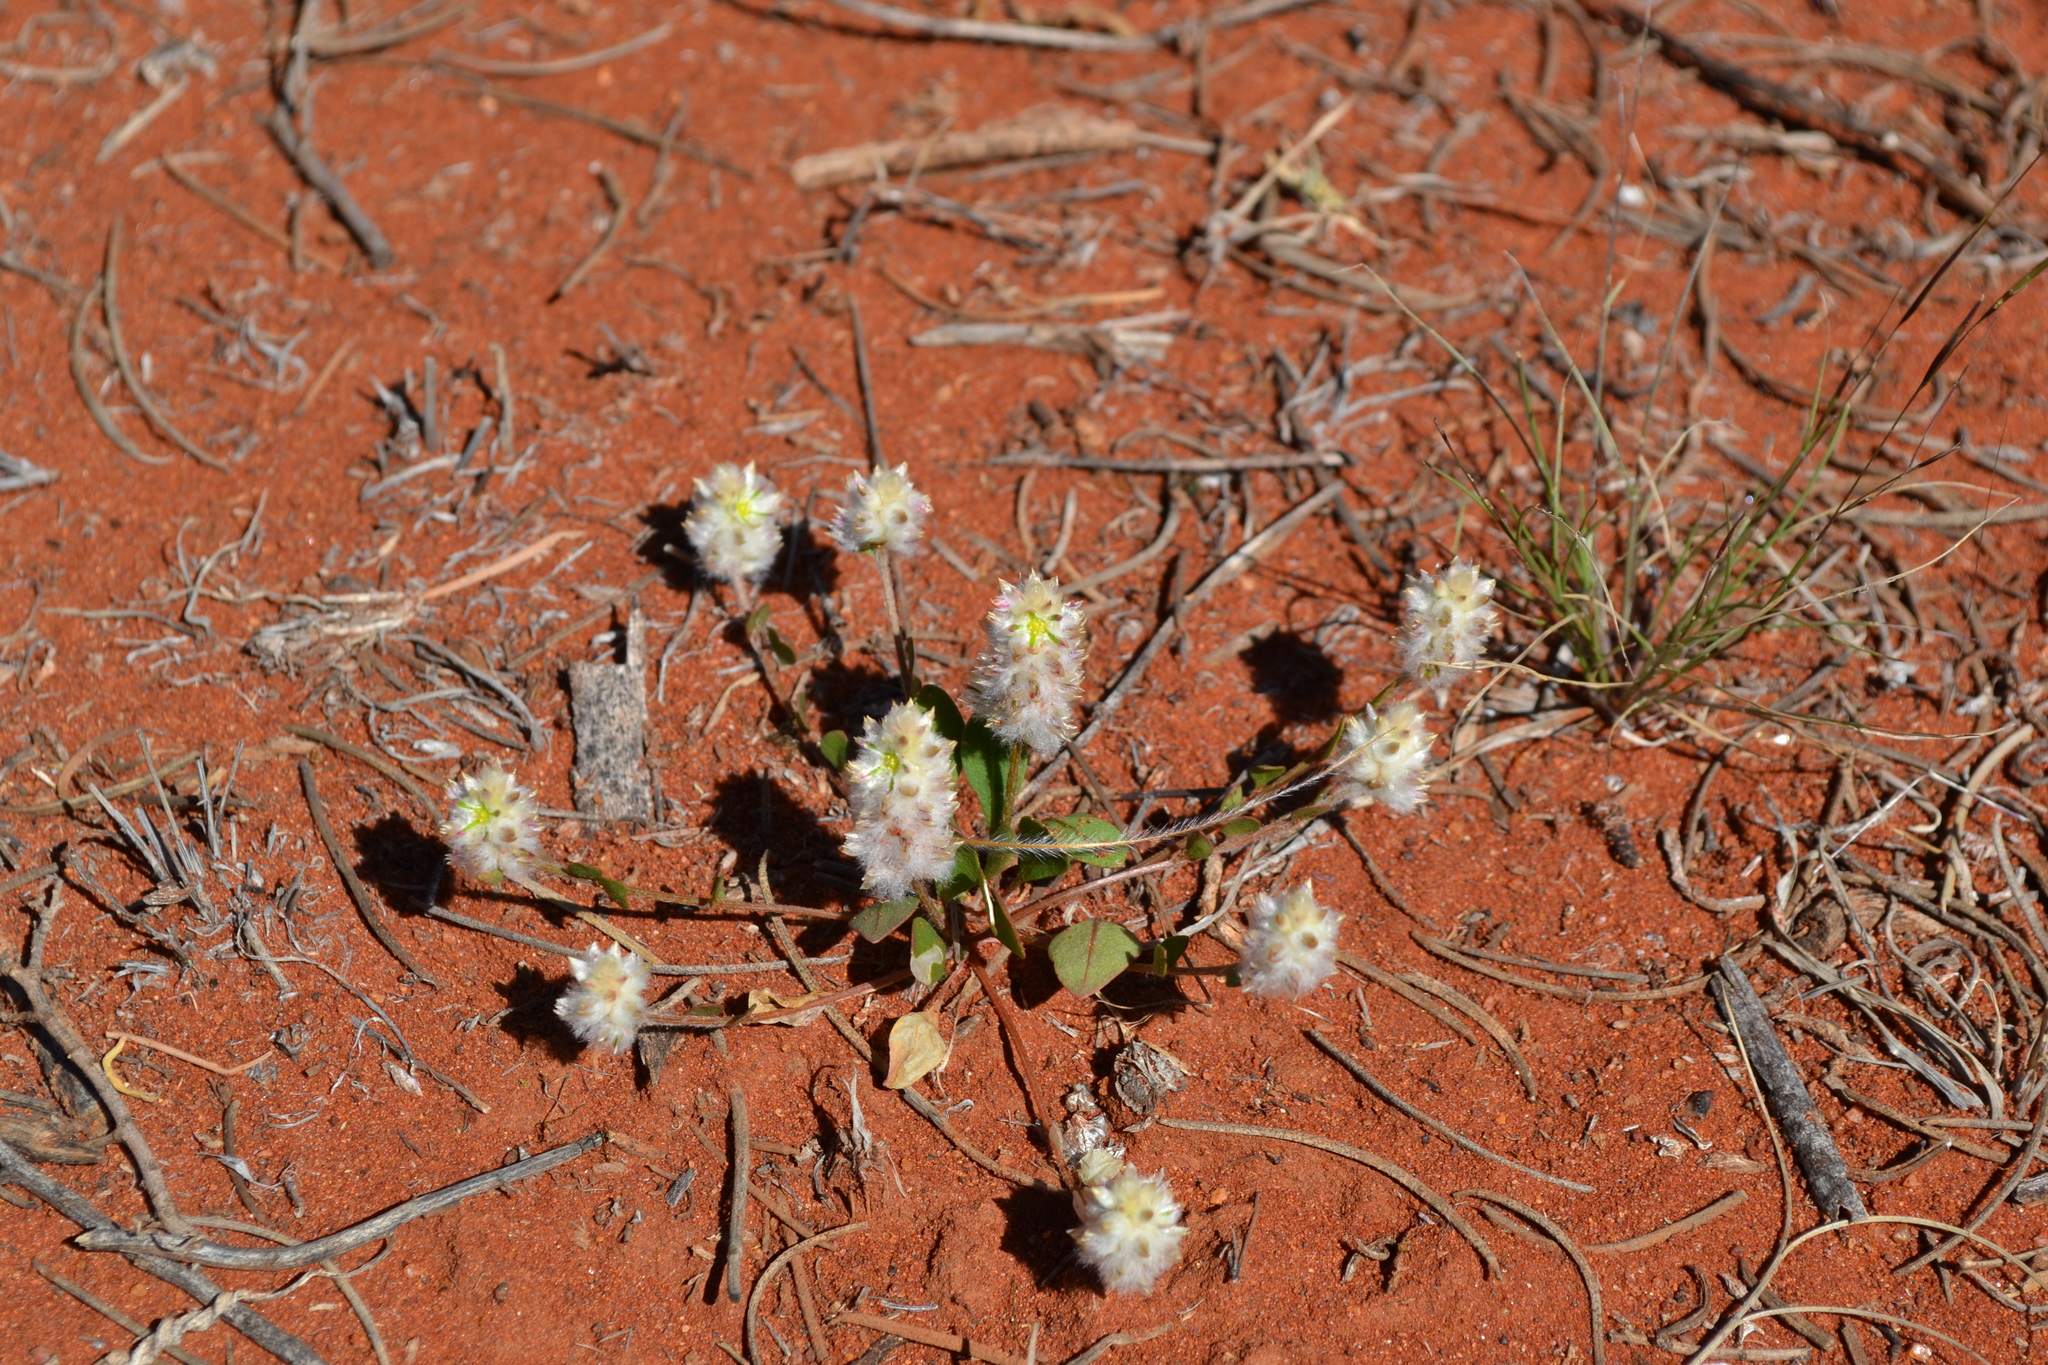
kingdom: Plantae
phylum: Tracheophyta
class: Magnoliopsida
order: Caryophyllales
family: Amaranthaceae
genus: Ptilotus
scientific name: Ptilotus chamaecladus
